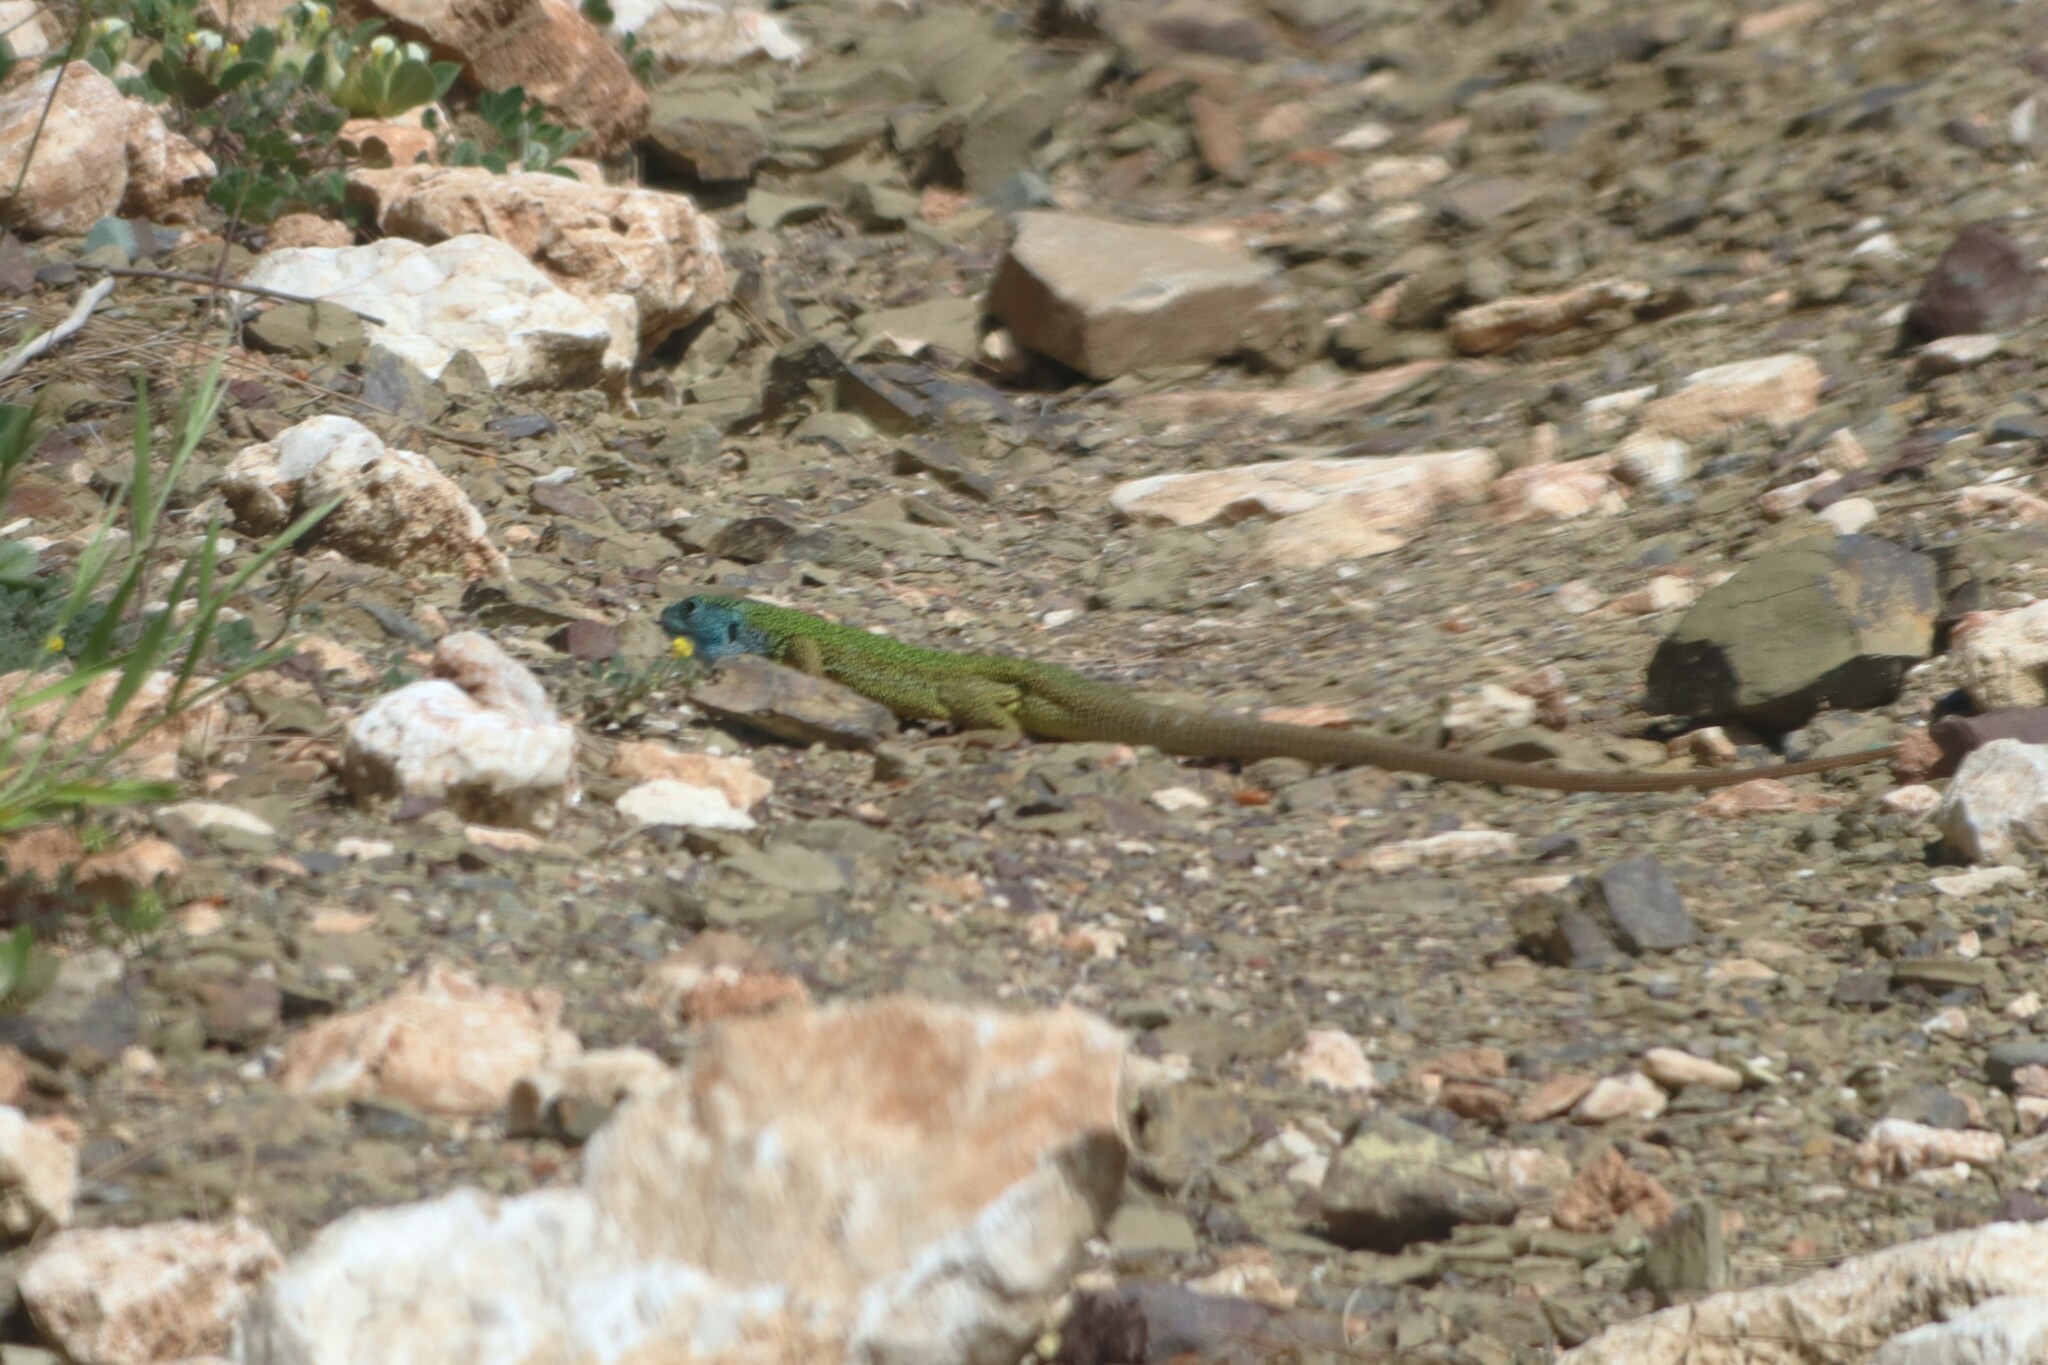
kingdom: Animalia
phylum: Chordata
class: Squamata
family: Lacertidae
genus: Lacerta
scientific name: Lacerta pamphylica
